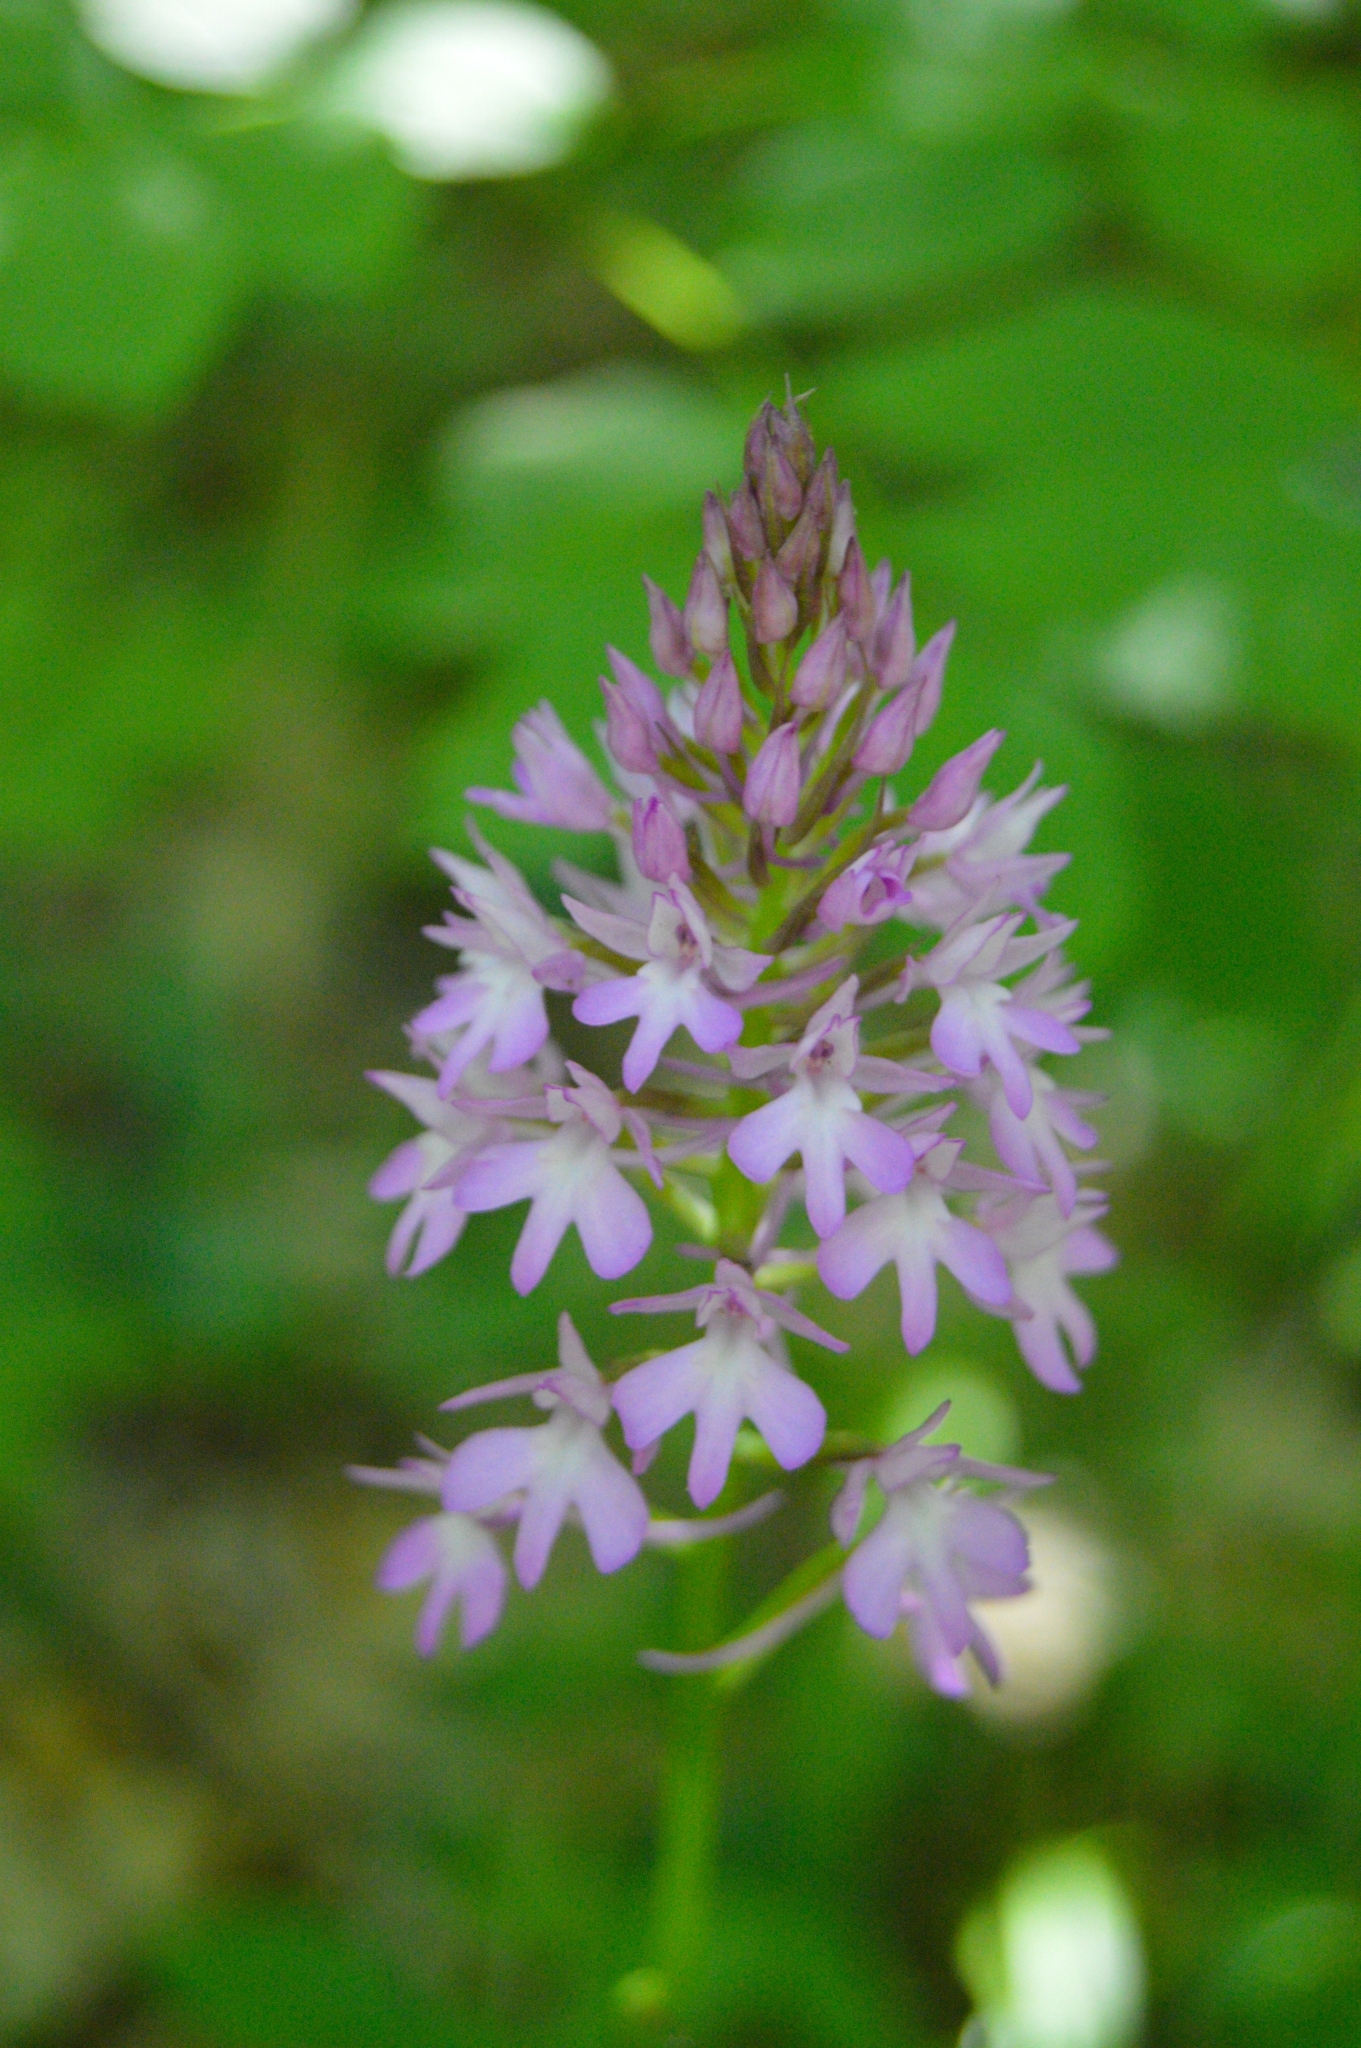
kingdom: Plantae
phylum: Tracheophyta
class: Liliopsida
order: Asparagales
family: Orchidaceae
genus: Anacamptis
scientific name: Anacamptis pyramidalis
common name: Pyramidal orchid
